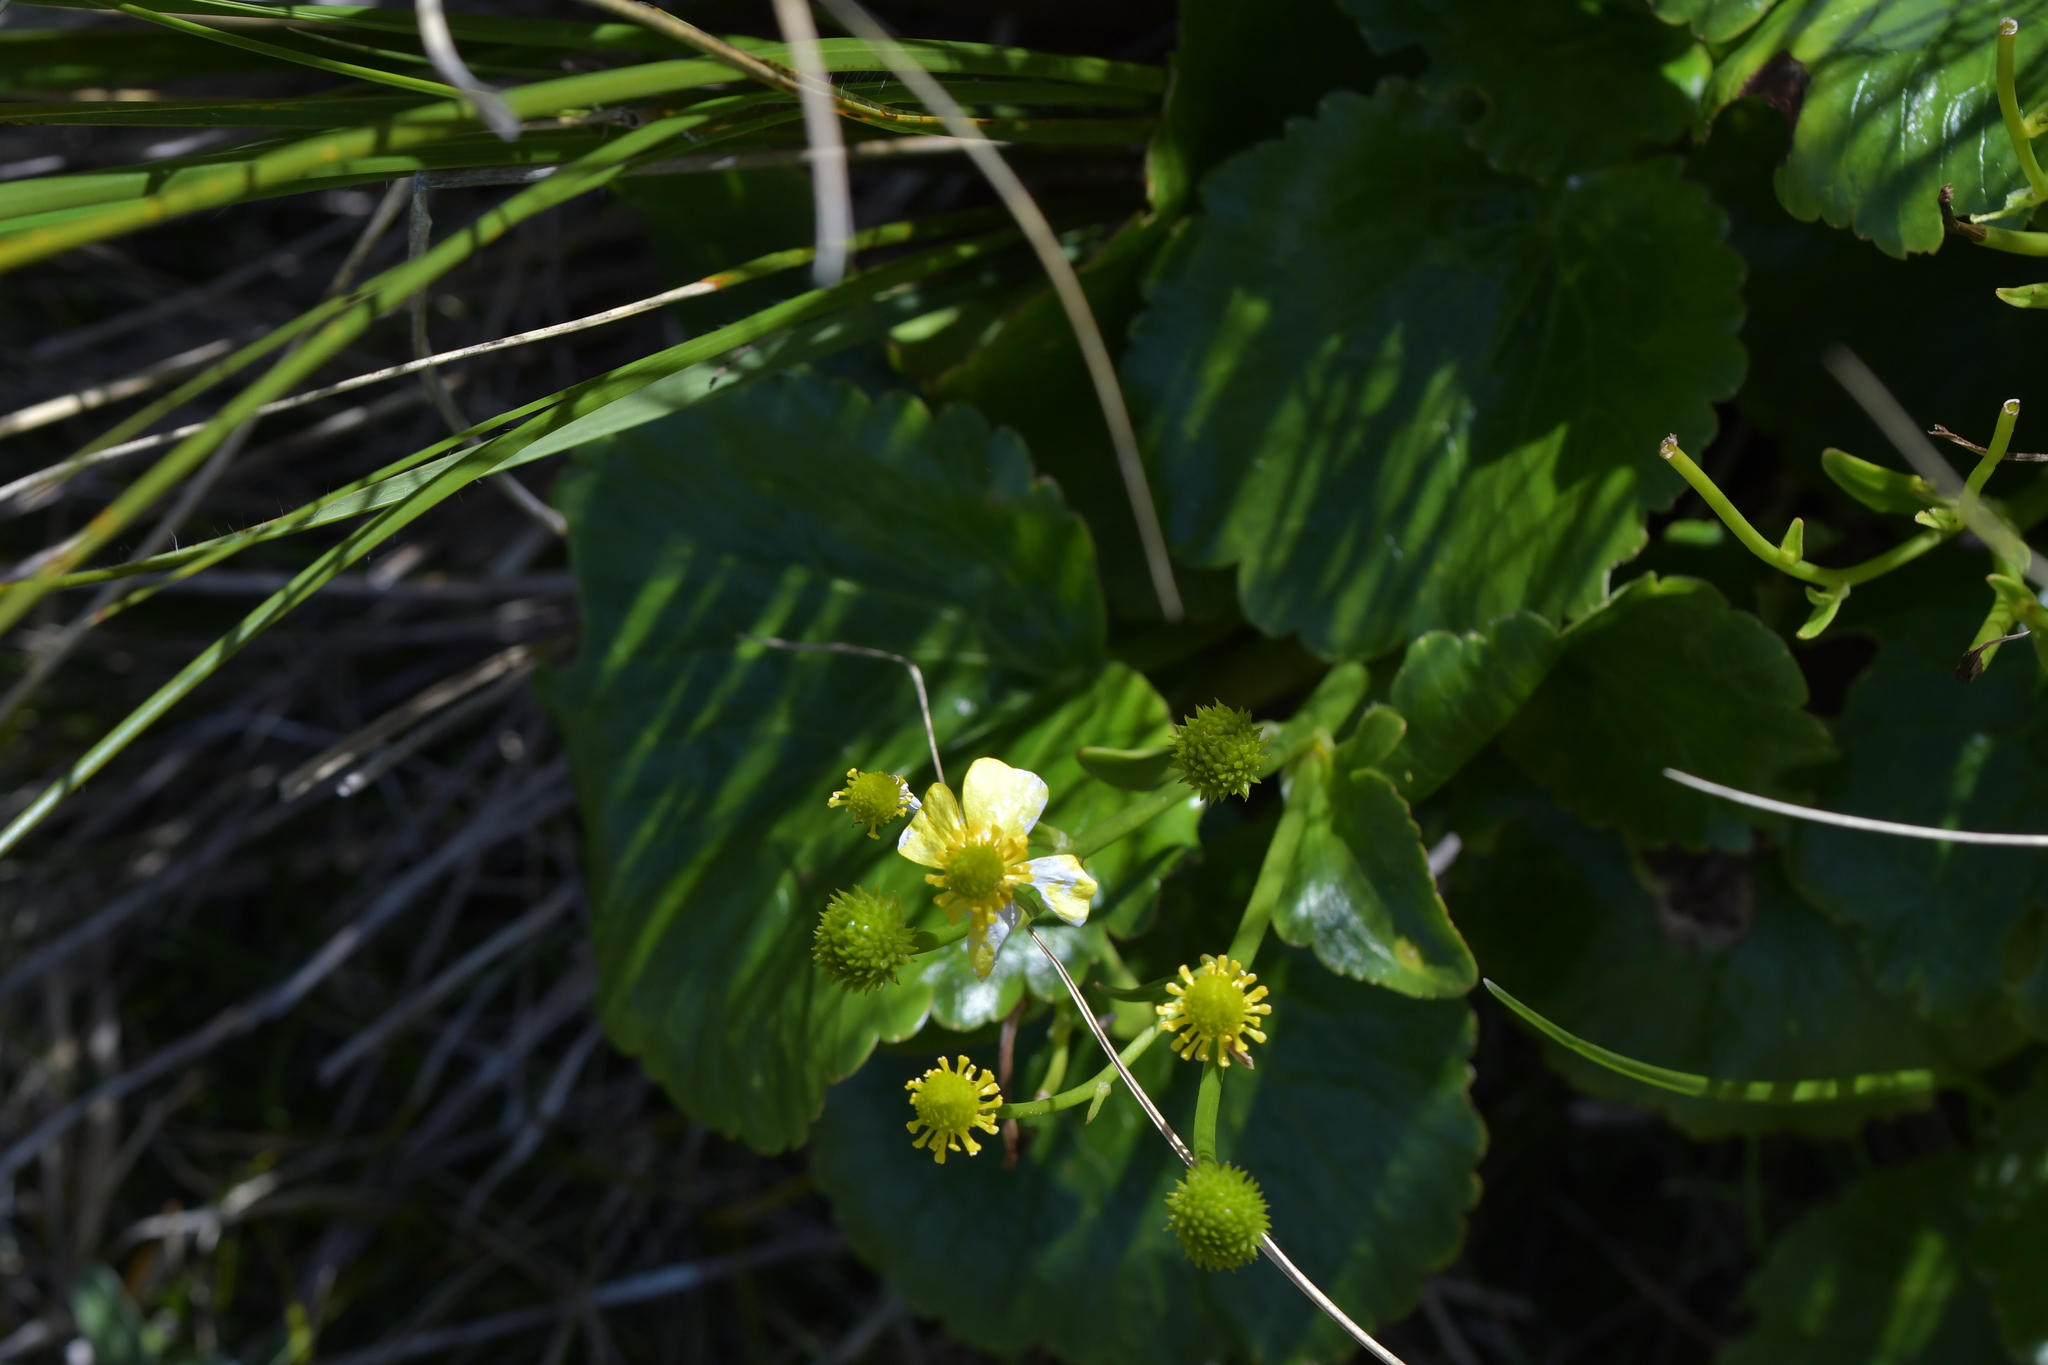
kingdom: Plantae
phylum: Tracheophyta
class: Magnoliopsida
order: Ranunculales
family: Ranunculaceae
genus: Ranunculus
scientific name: Ranunculus insignis
